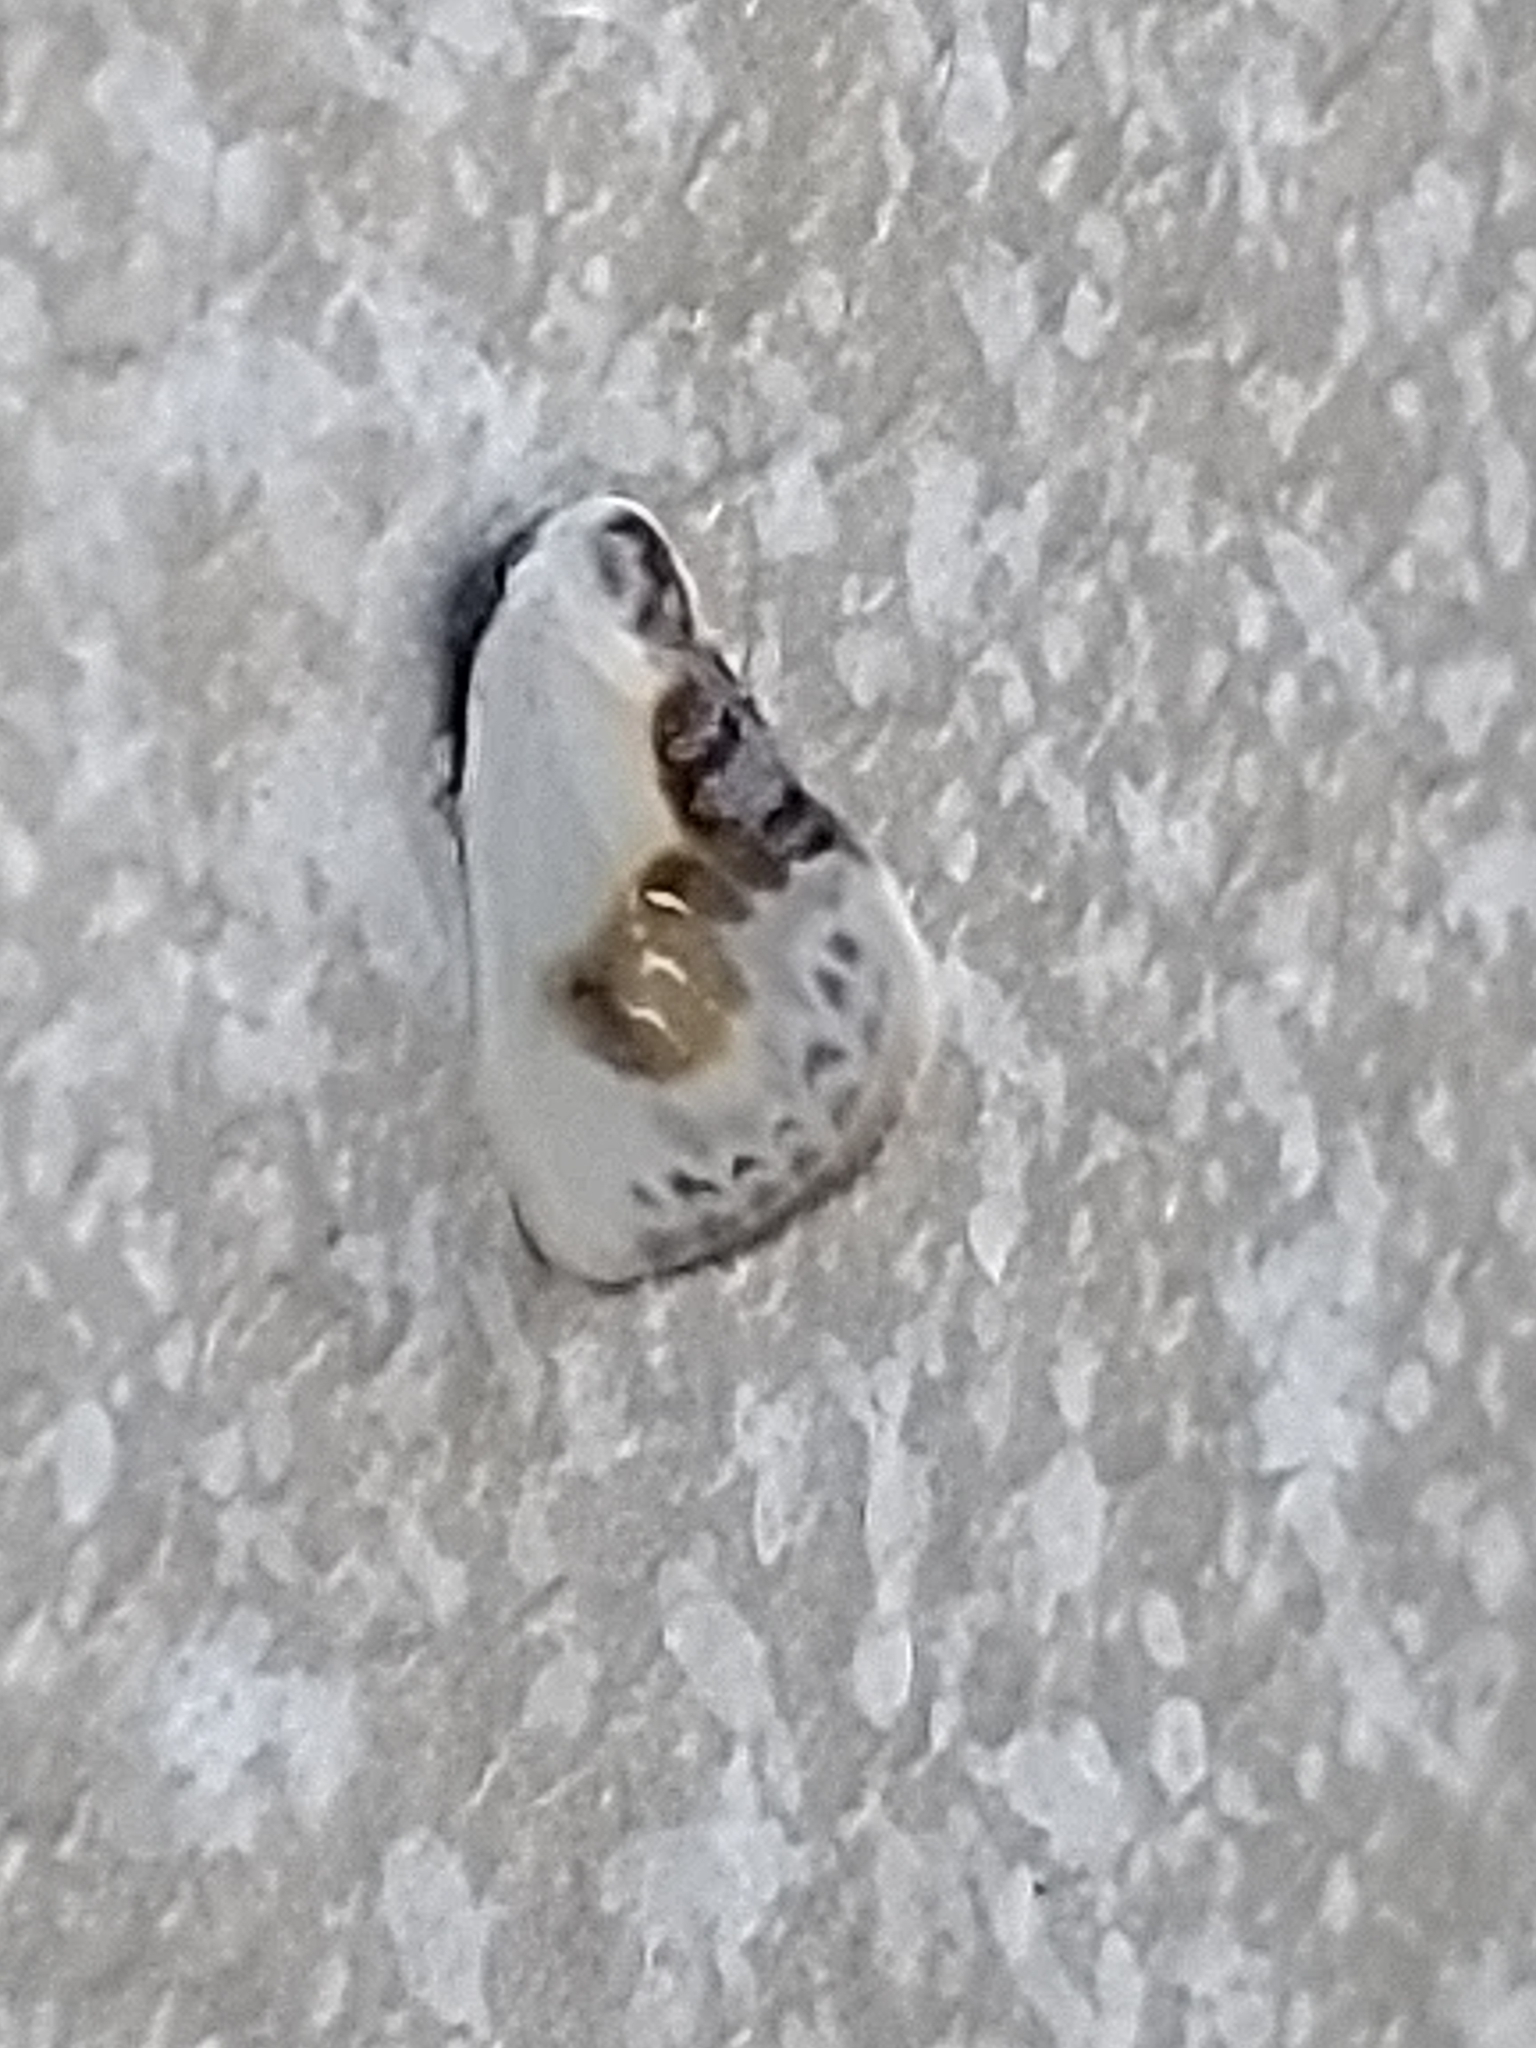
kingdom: Animalia
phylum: Arthropoda
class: Insecta
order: Lepidoptera
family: Drepanidae
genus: Cilix
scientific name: Cilix glaucata
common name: Chinese character
